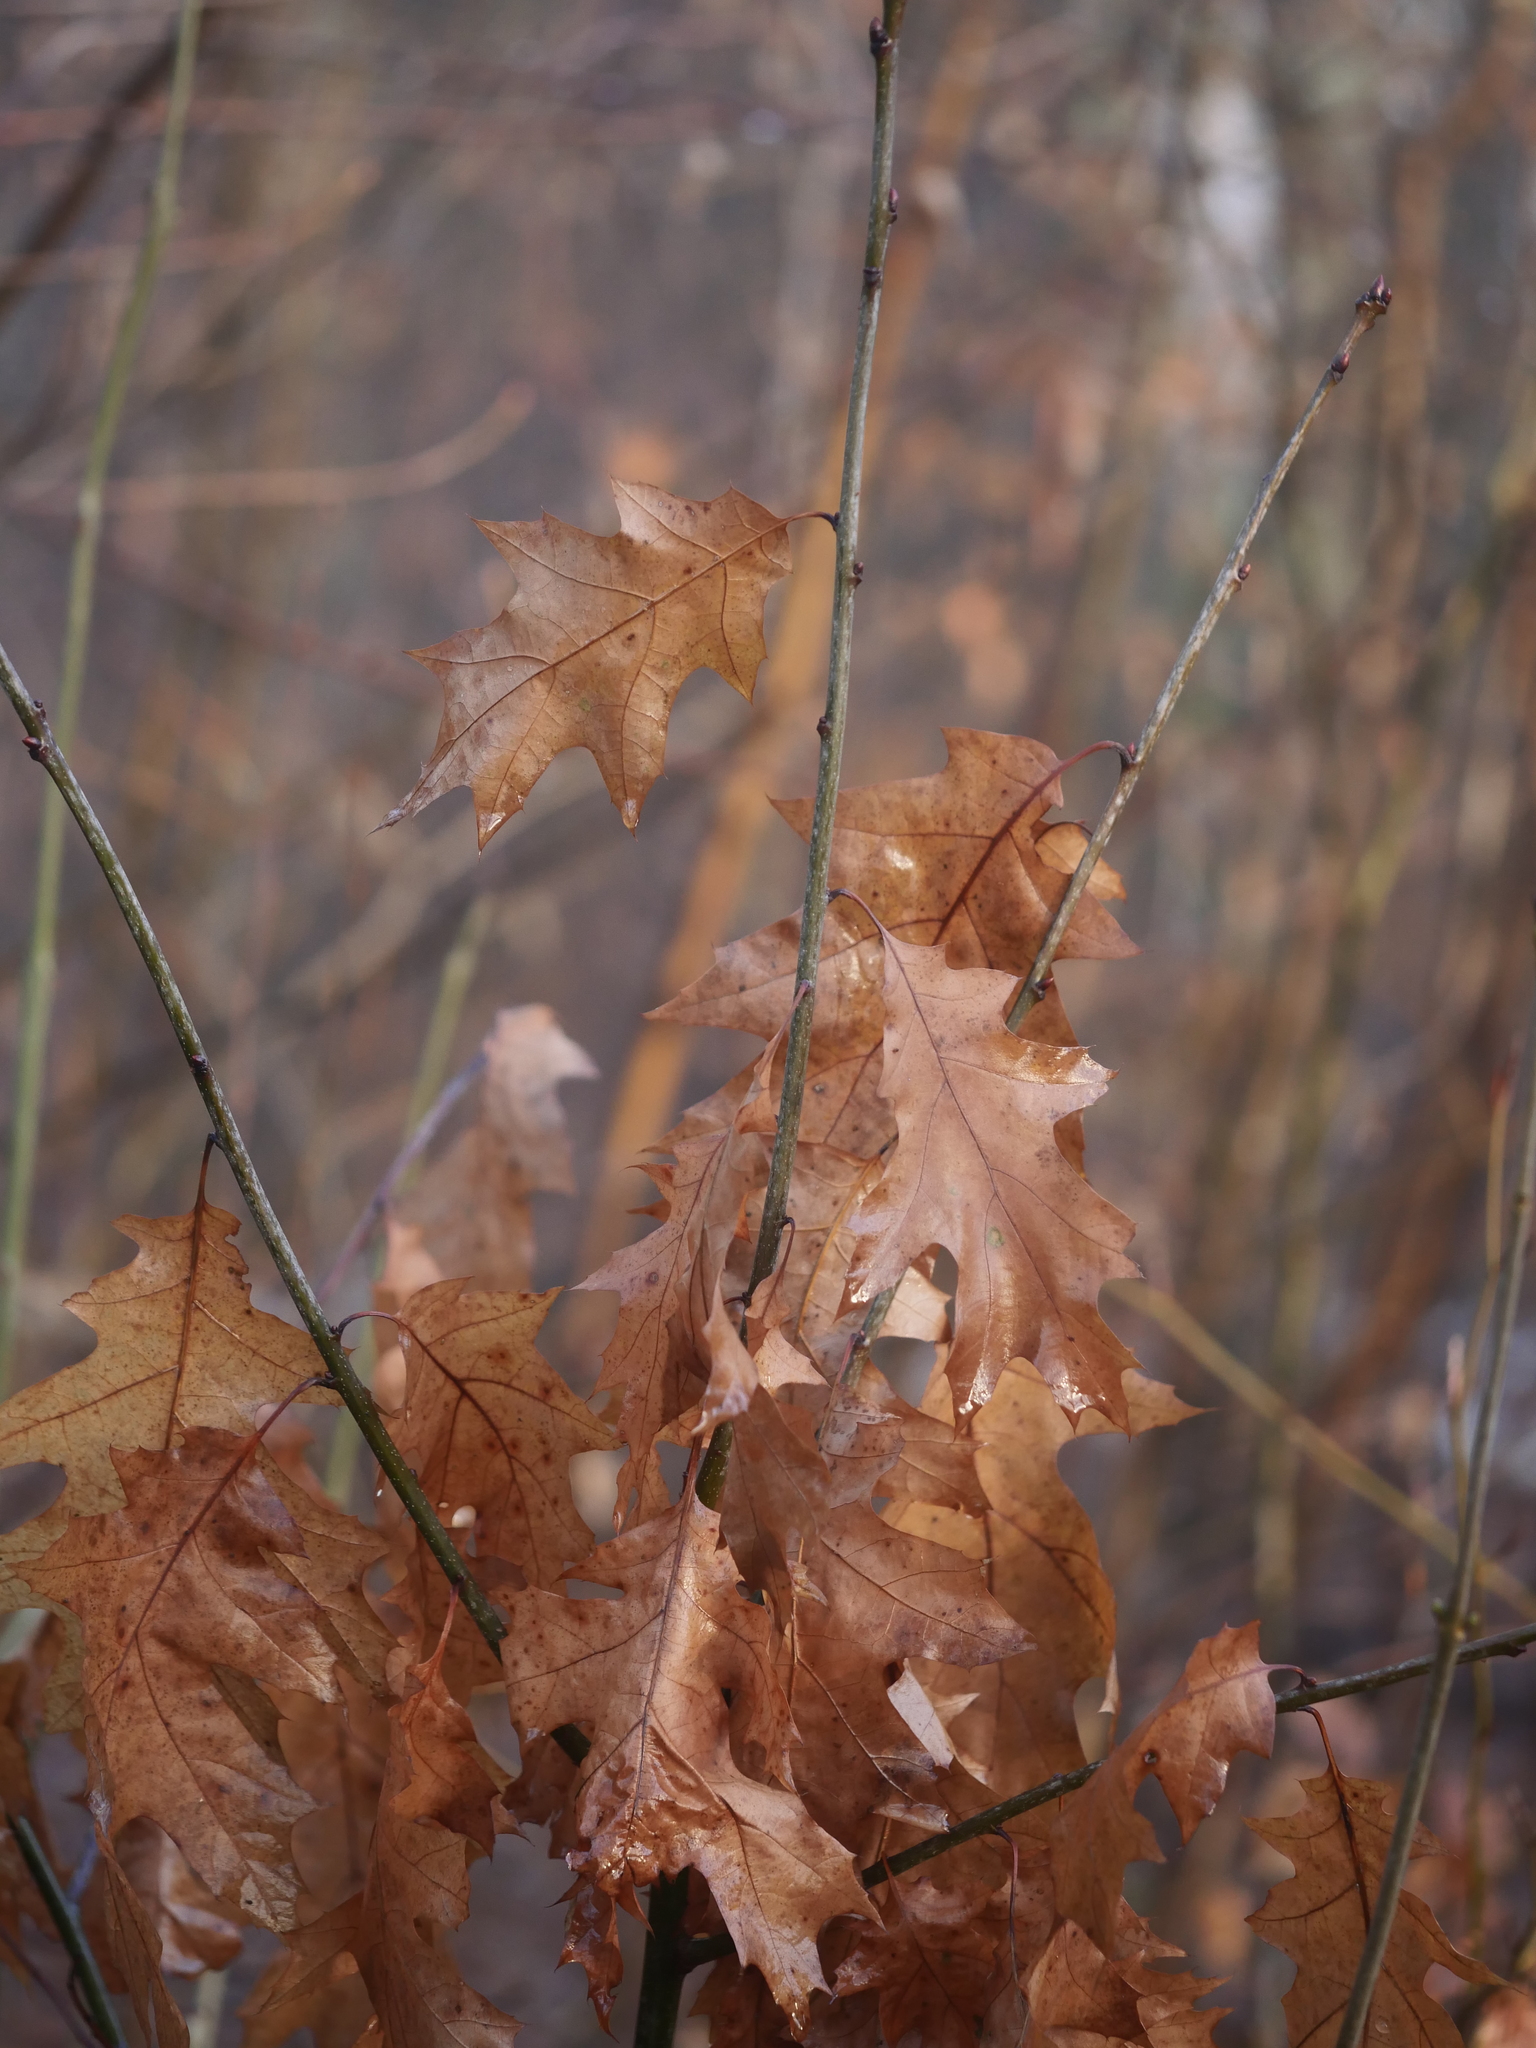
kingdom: Plantae
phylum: Tracheophyta
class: Magnoliopsida
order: Fagales
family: Fagaceae
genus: Quercus
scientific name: Quercus rubra
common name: Red oak
